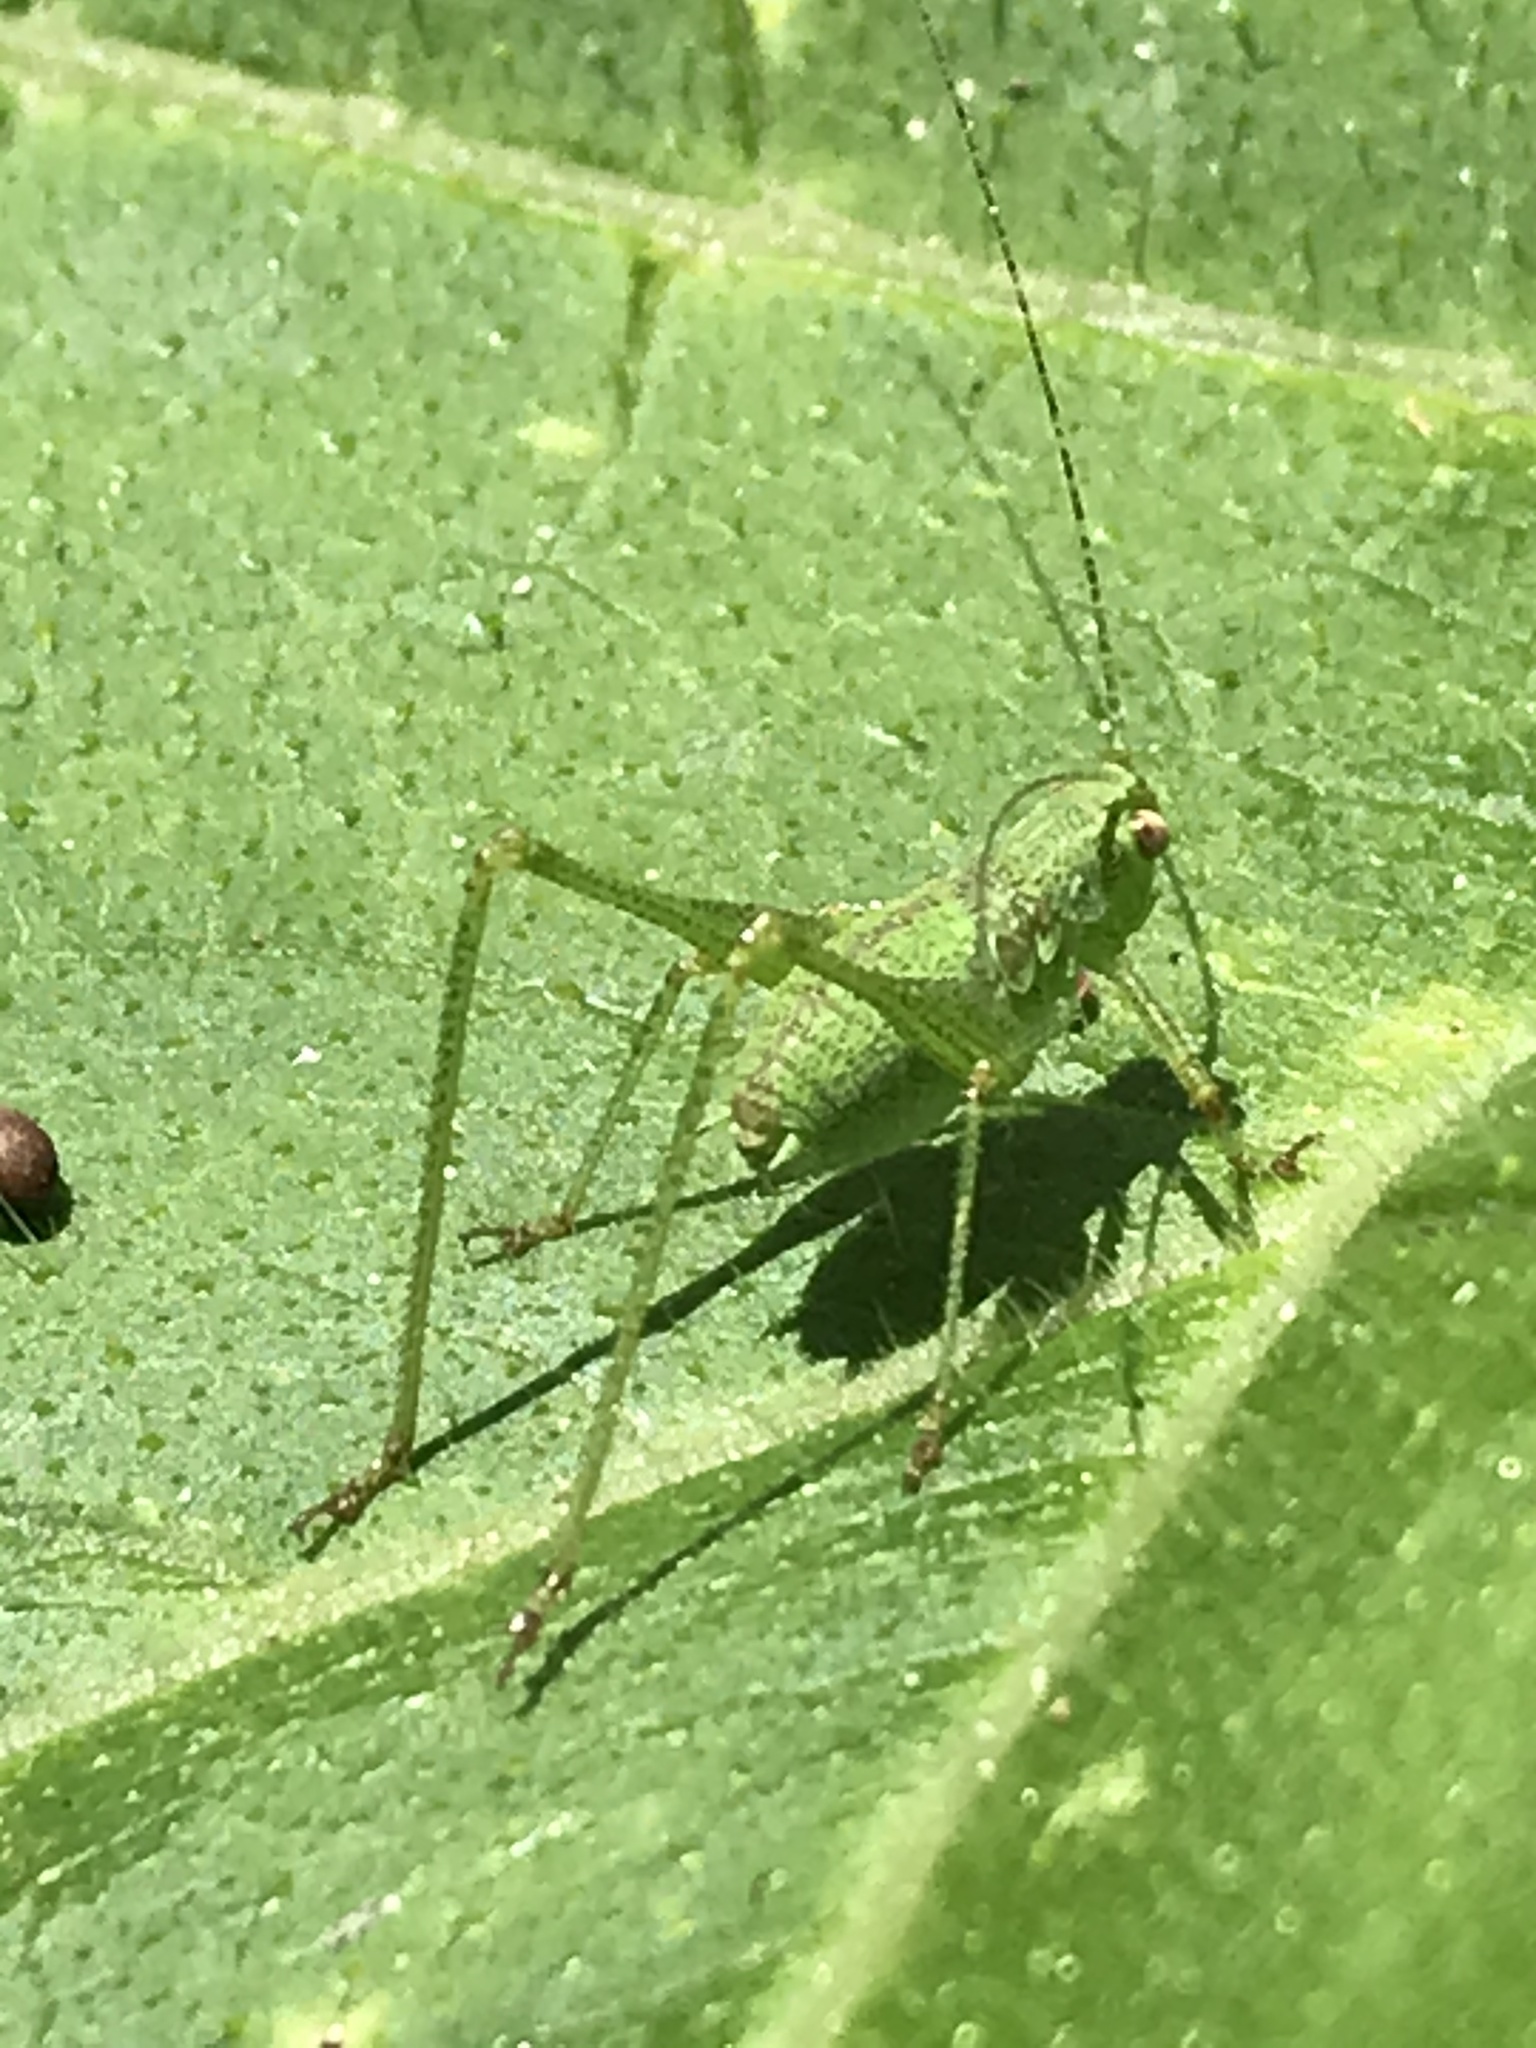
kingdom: Animalia
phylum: Arthropoda
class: Insecta
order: Orthoptera
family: Tettigoniidae
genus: Phaneroptera
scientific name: Phaneroptera nana
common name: Southern sickle bush-cricket
